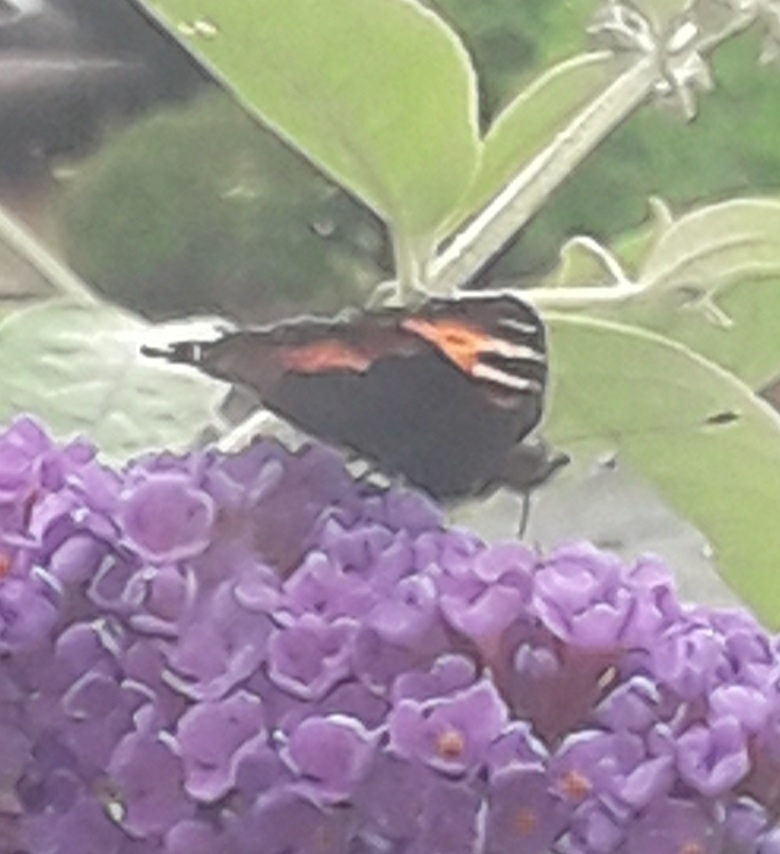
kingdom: Animalia
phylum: Arthropoda
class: Insecta
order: Lepidoptera
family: Nymphalidae
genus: Aglais
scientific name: Aglais urticae
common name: Small tortoiseshell
